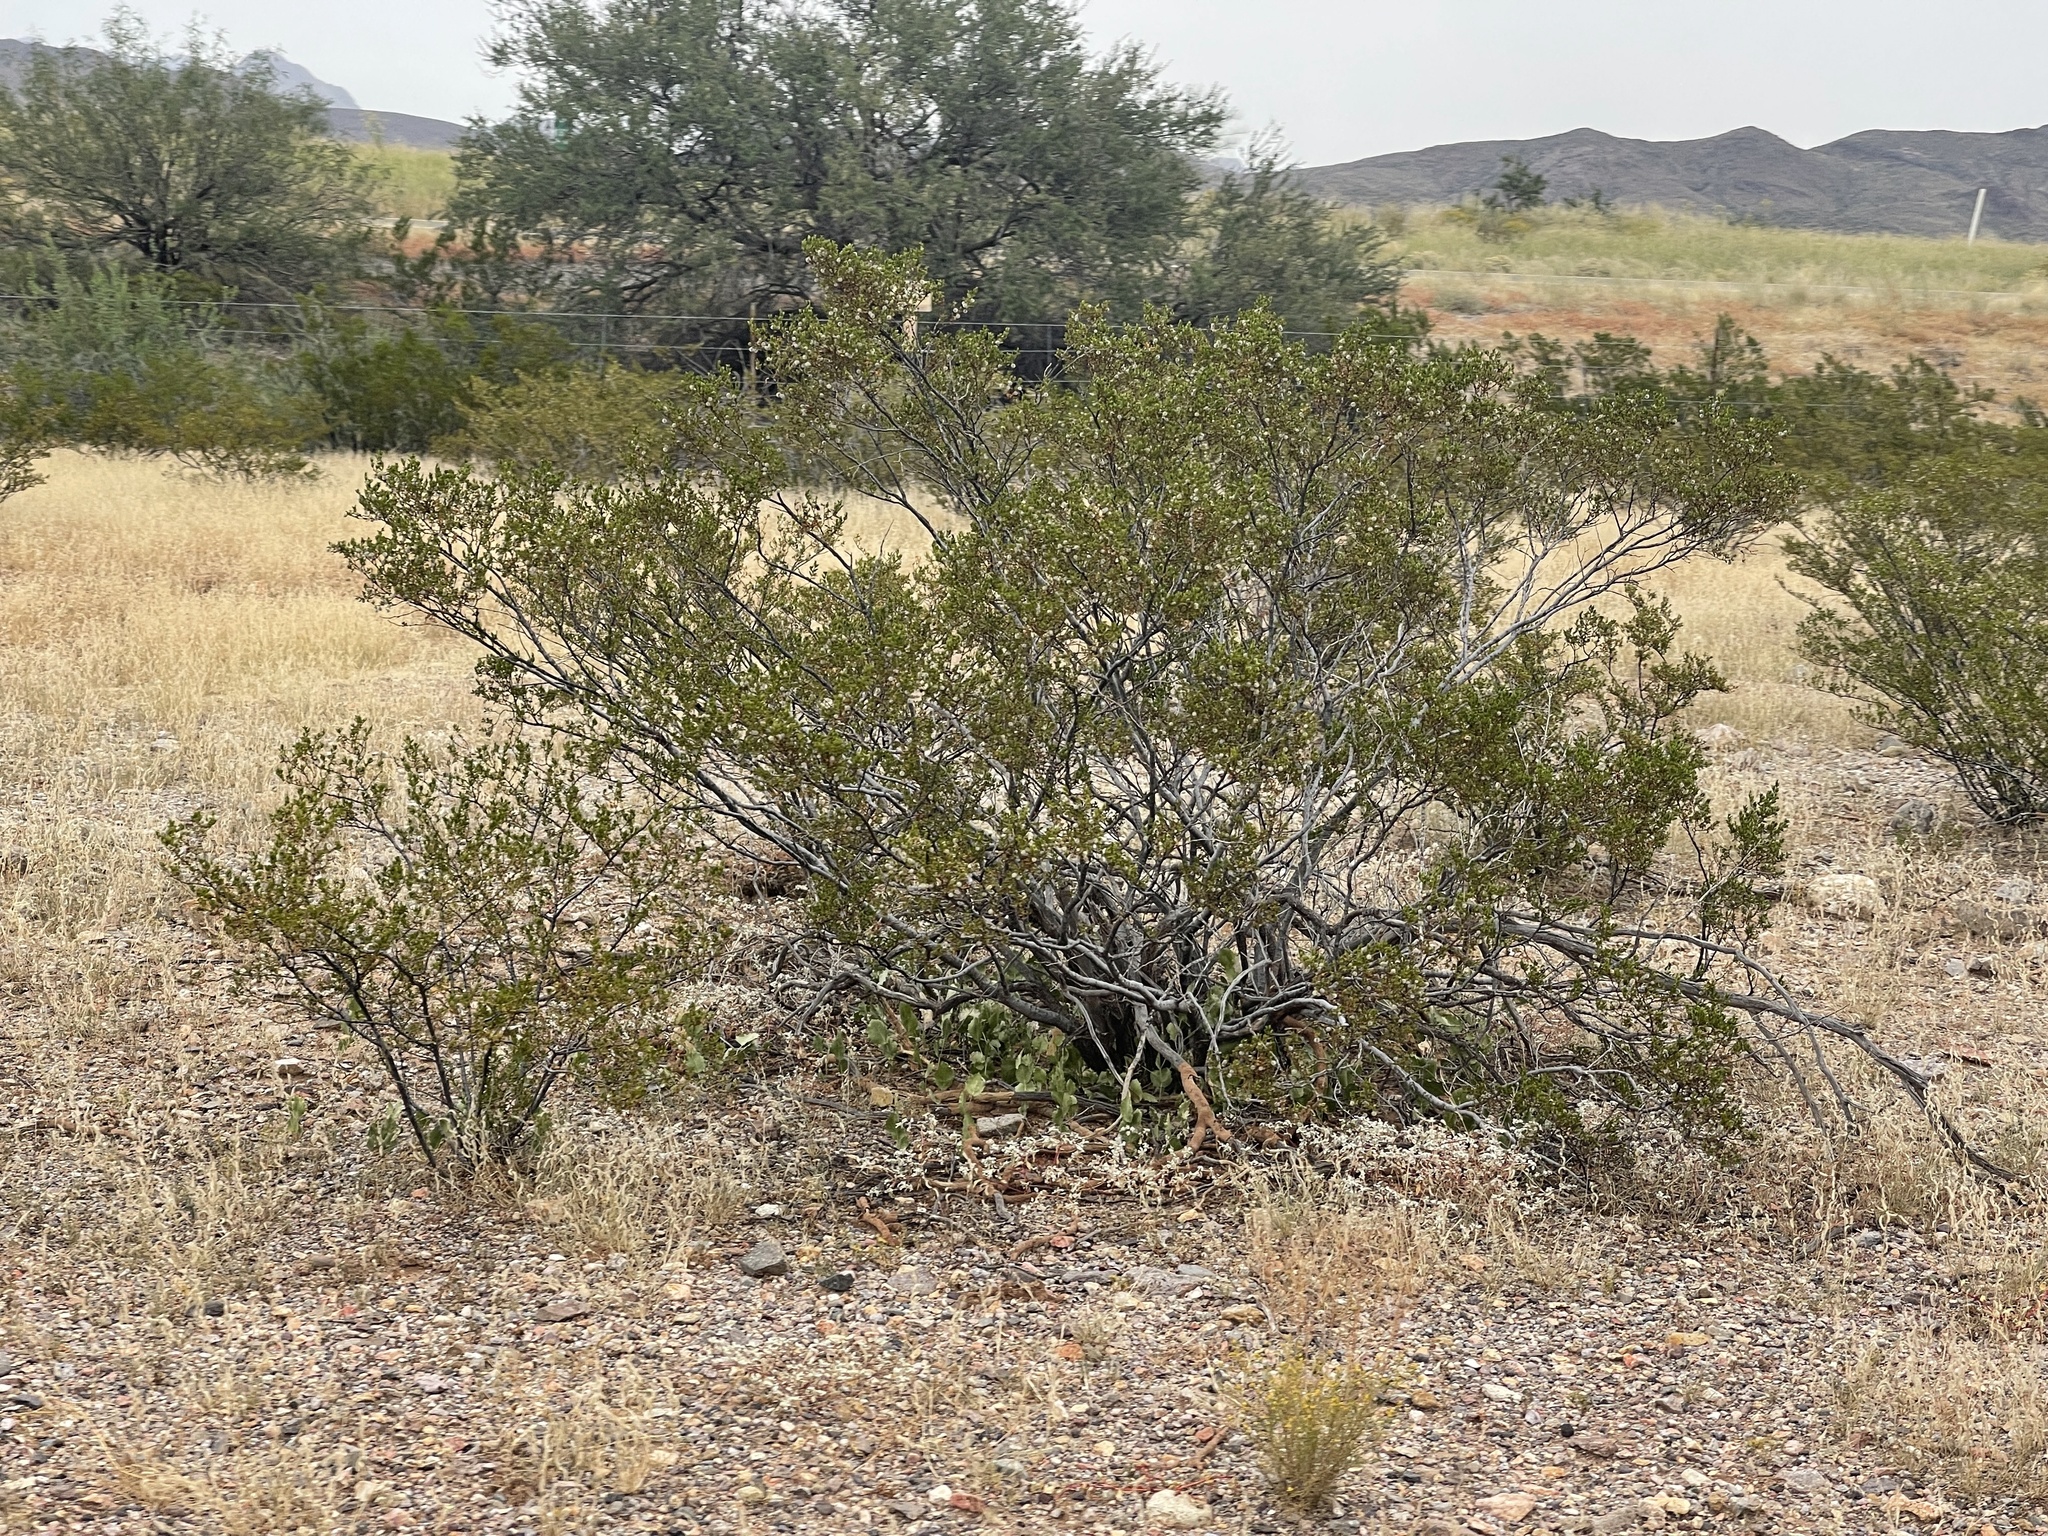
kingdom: Plantae
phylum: Tracheophyta
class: Magnoliopsida
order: Zygophyllales
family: Zygophyllaceae
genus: Larrea
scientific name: Larrea tridentata
